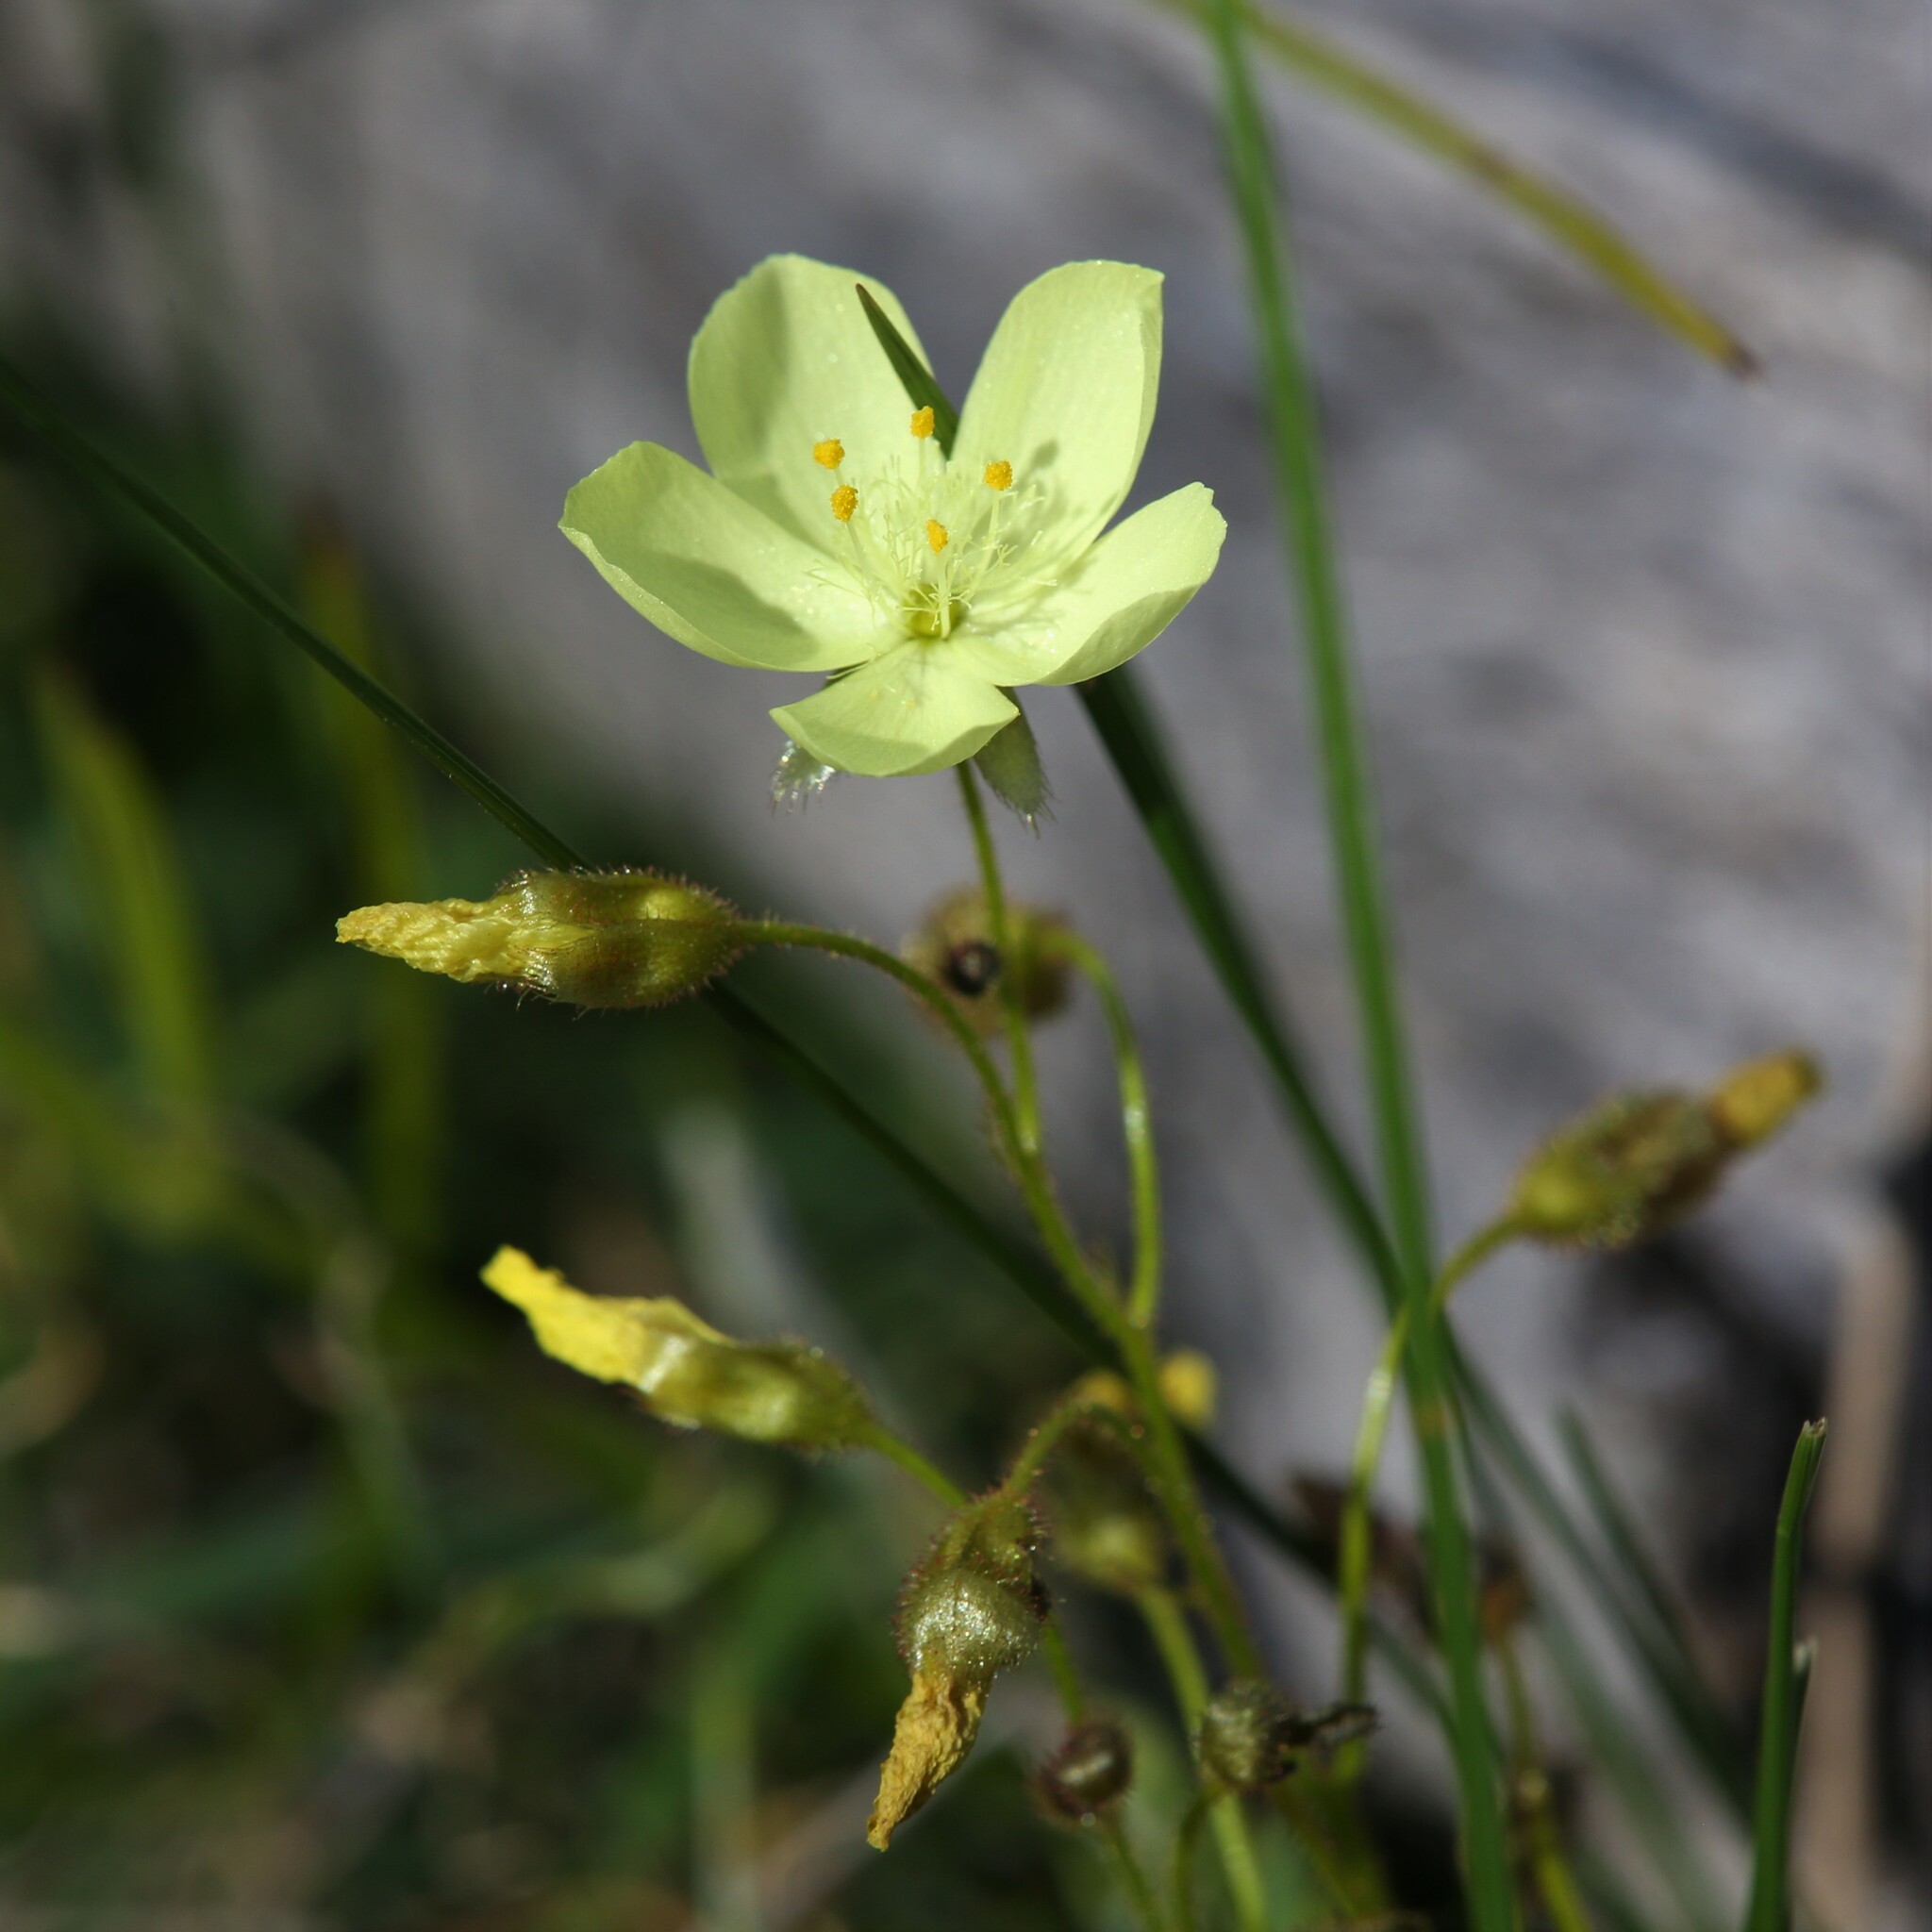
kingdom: Plantae
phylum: Tracheophyta
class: Magnoliopsida
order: Caryophyllales
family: Droseraceae
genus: Drosera
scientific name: Drosera subhirtella
